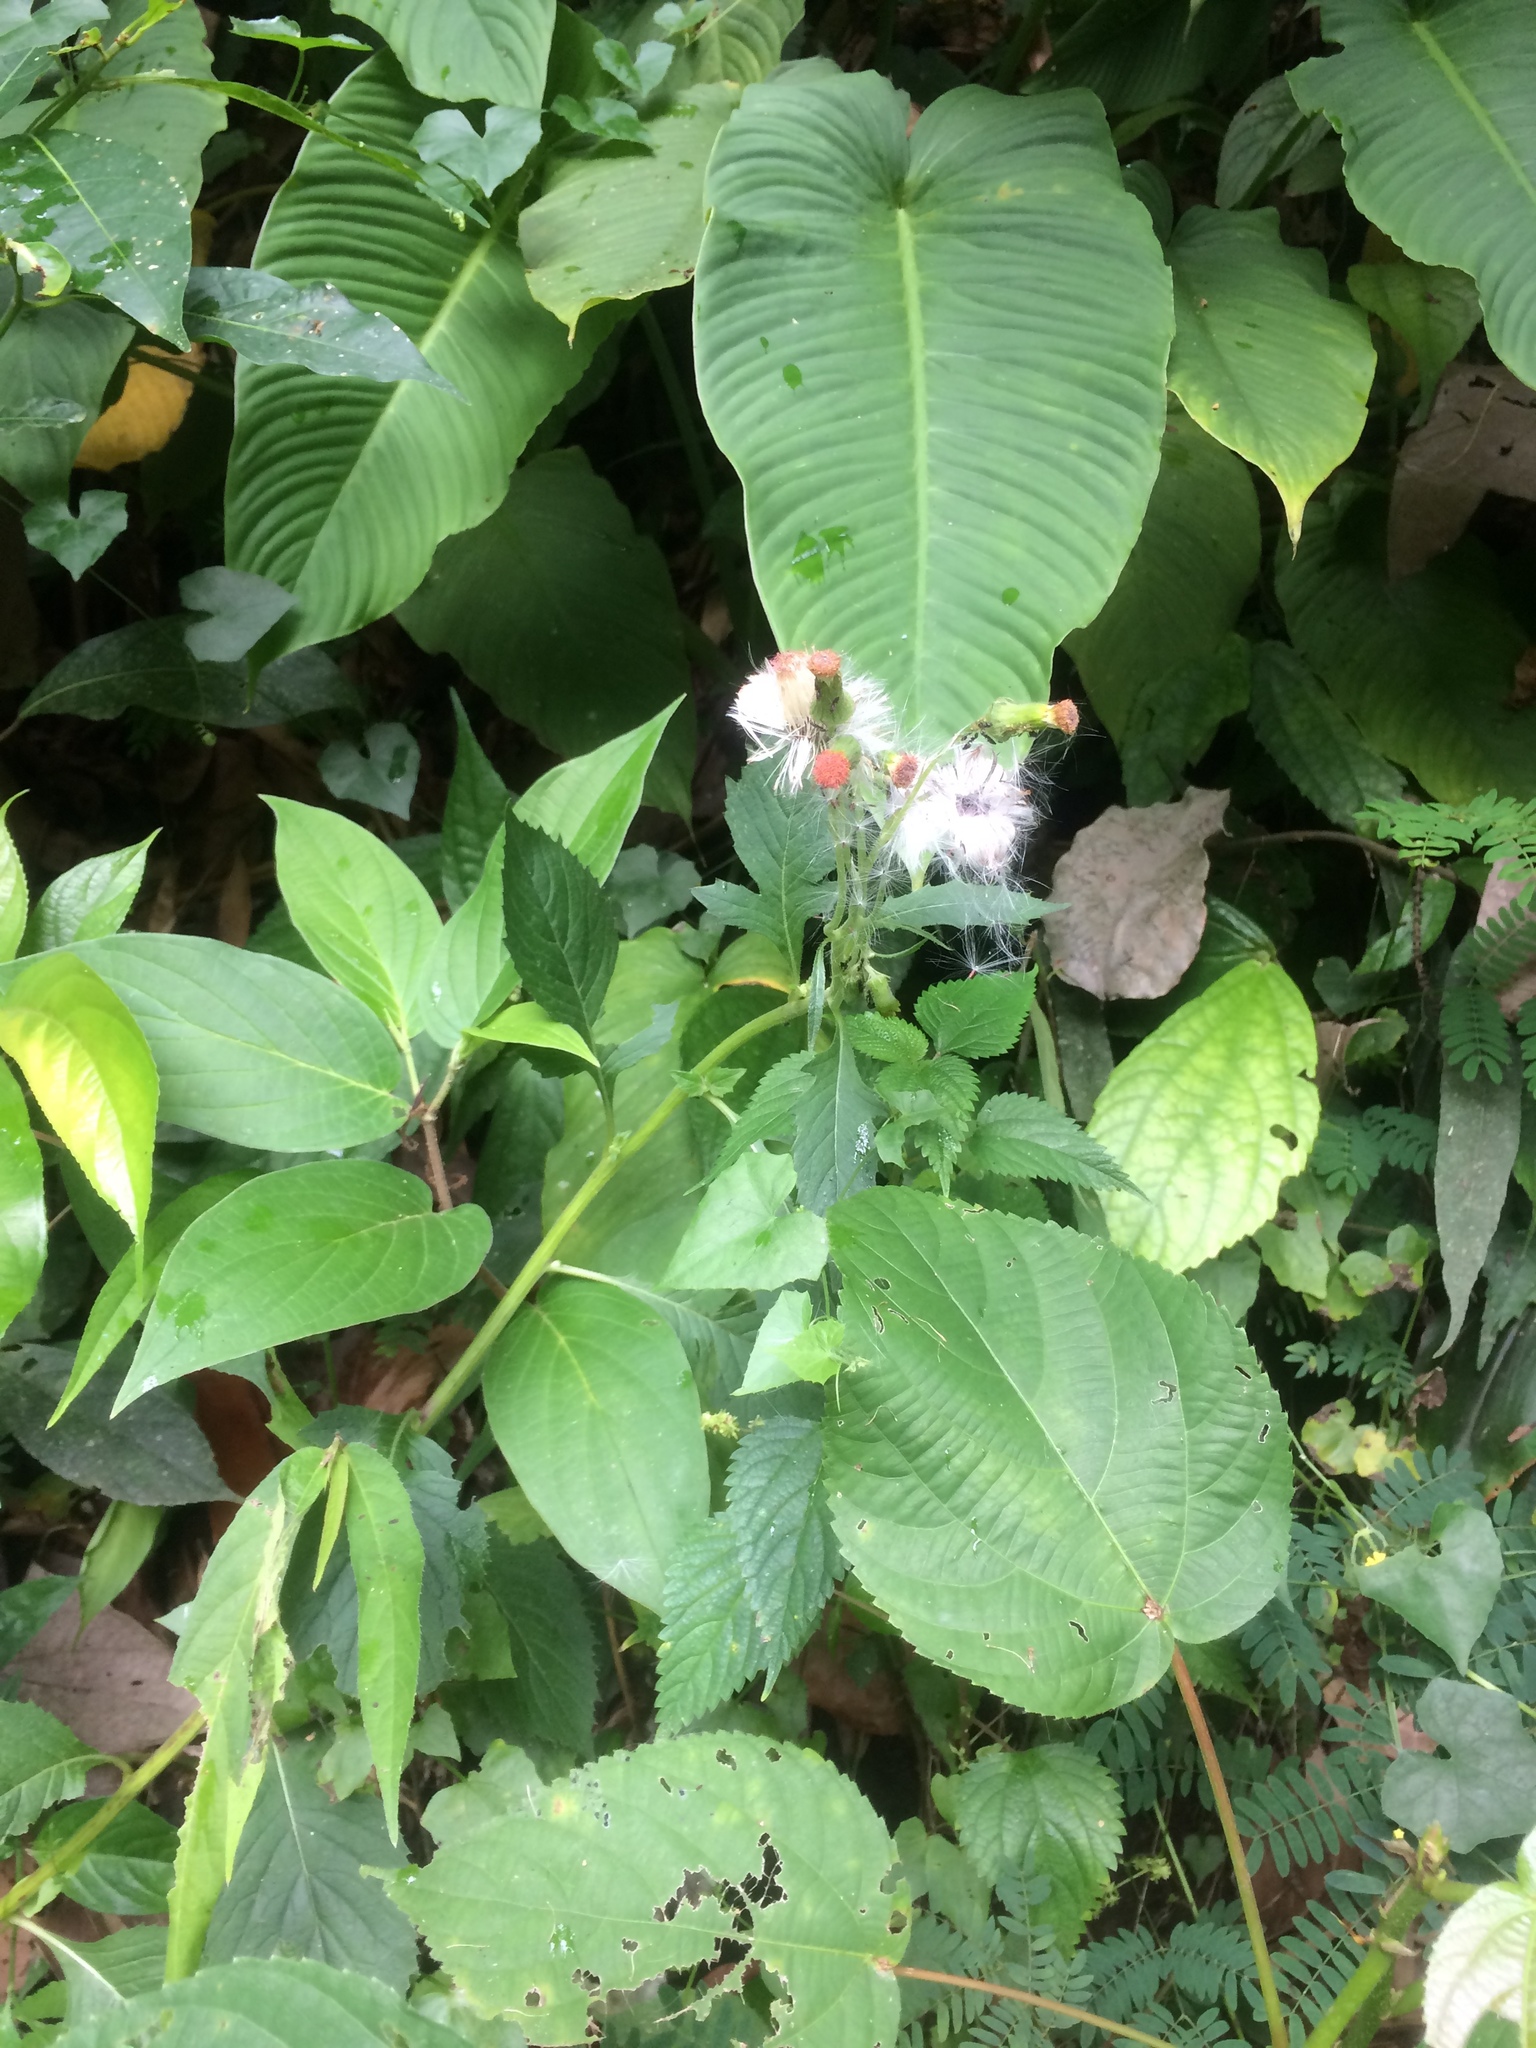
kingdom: Plantae
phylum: Tracheophyta
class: Magnoliopsida
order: Asterales
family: Asteraceae
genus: Crassocephalum
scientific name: Crassocephalum crepidioides
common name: Redflower ragleaf
